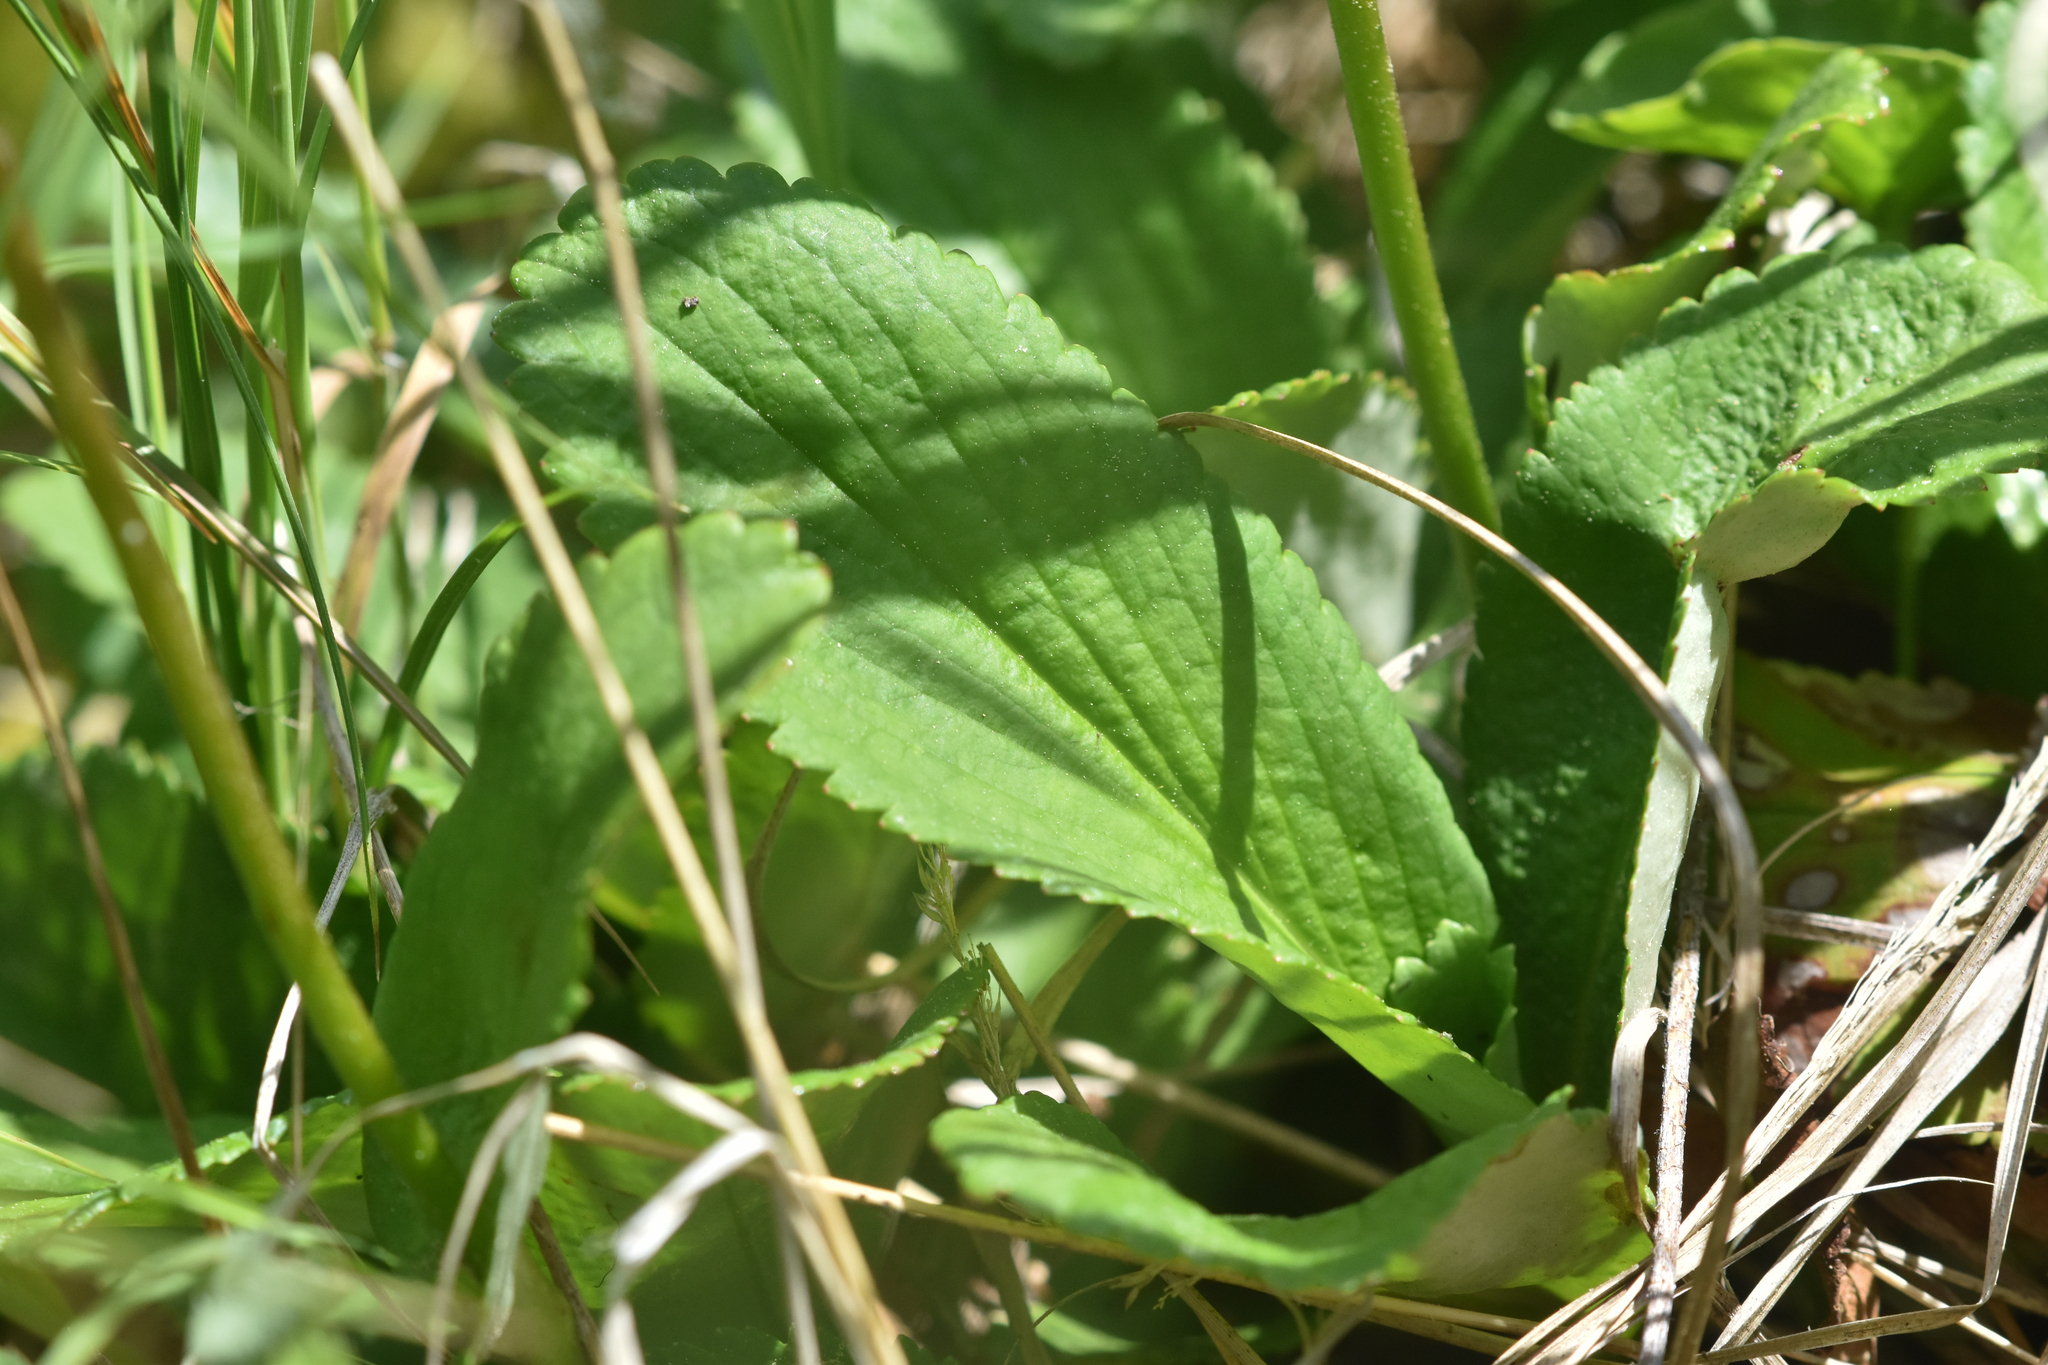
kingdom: Plantae
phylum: Tracheophyta
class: Magnoliopsida
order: Saxifragales
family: Saxifragaceae
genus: Leptarrhena
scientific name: Leptarrhena pyrolifolia
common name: Leatherleaf-saxifrage
